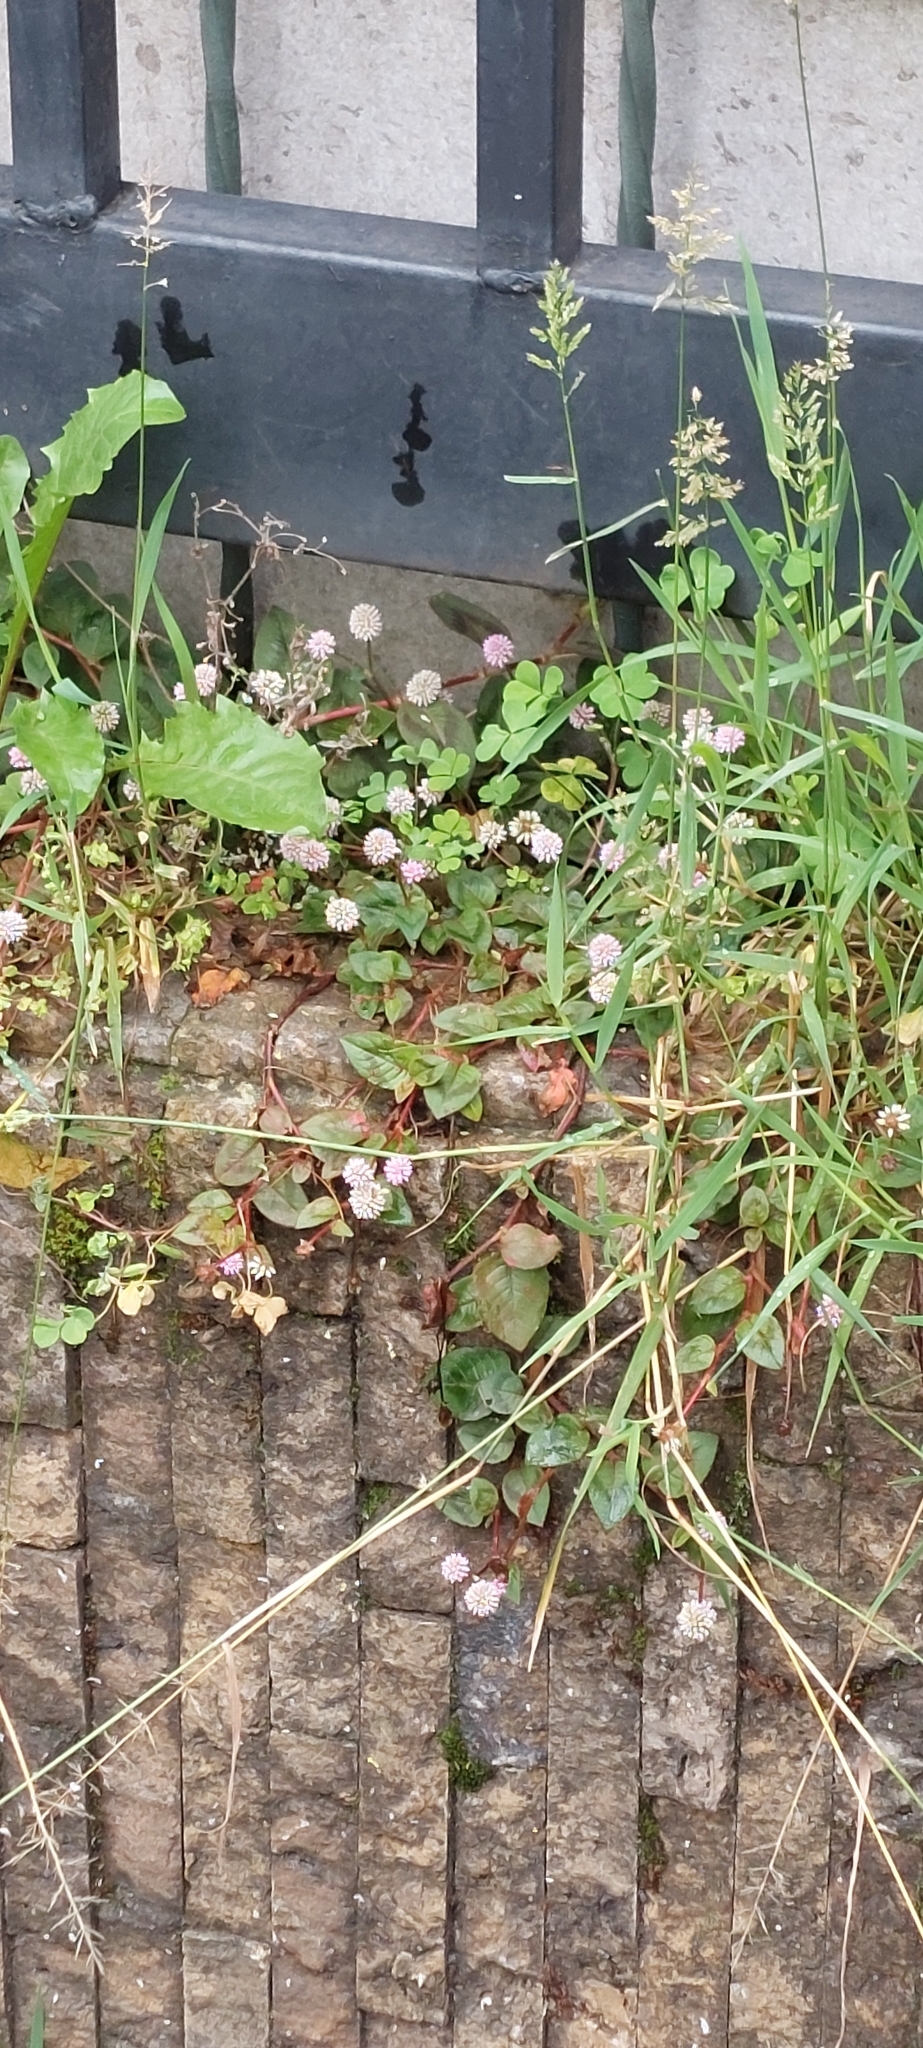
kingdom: Plantae
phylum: Tracheophyta
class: Magnoliopsida
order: Caryophyllales
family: Polygonaceae
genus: Persicaria
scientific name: Persicaria capitata
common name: Pinkhead smartweed
